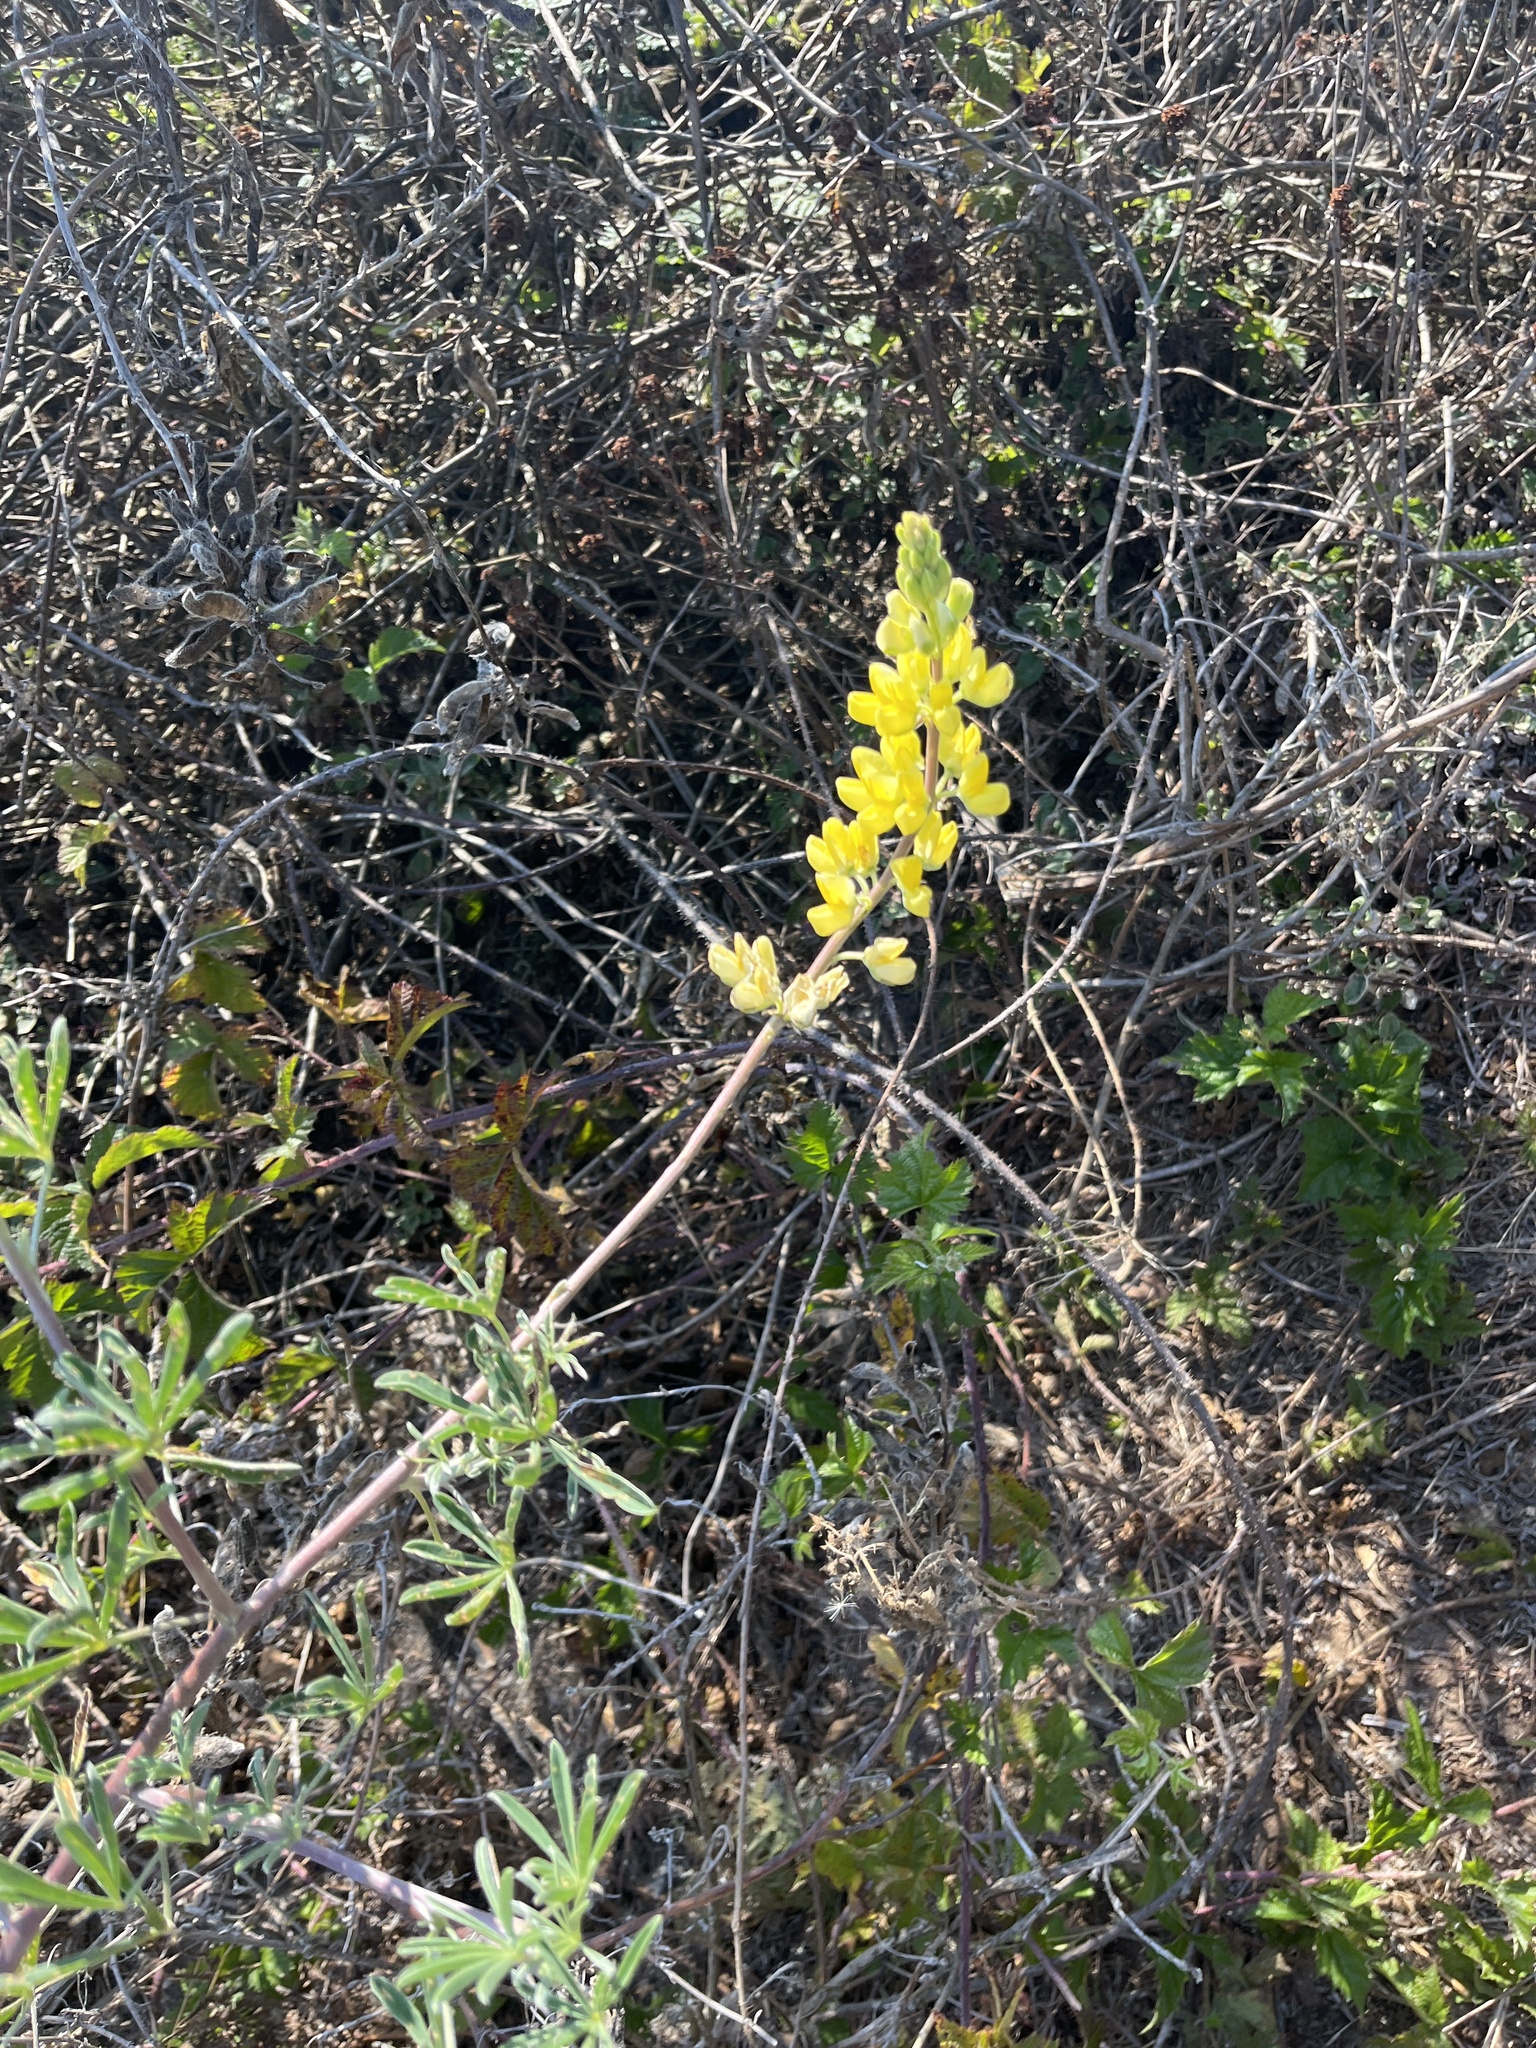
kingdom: Plantae
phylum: Tracheophyta
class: Magnoliopsida
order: Fabales
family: Fabaceae
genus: Lupinus
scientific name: Lupinus arboreus
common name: Yellow bush lupine
